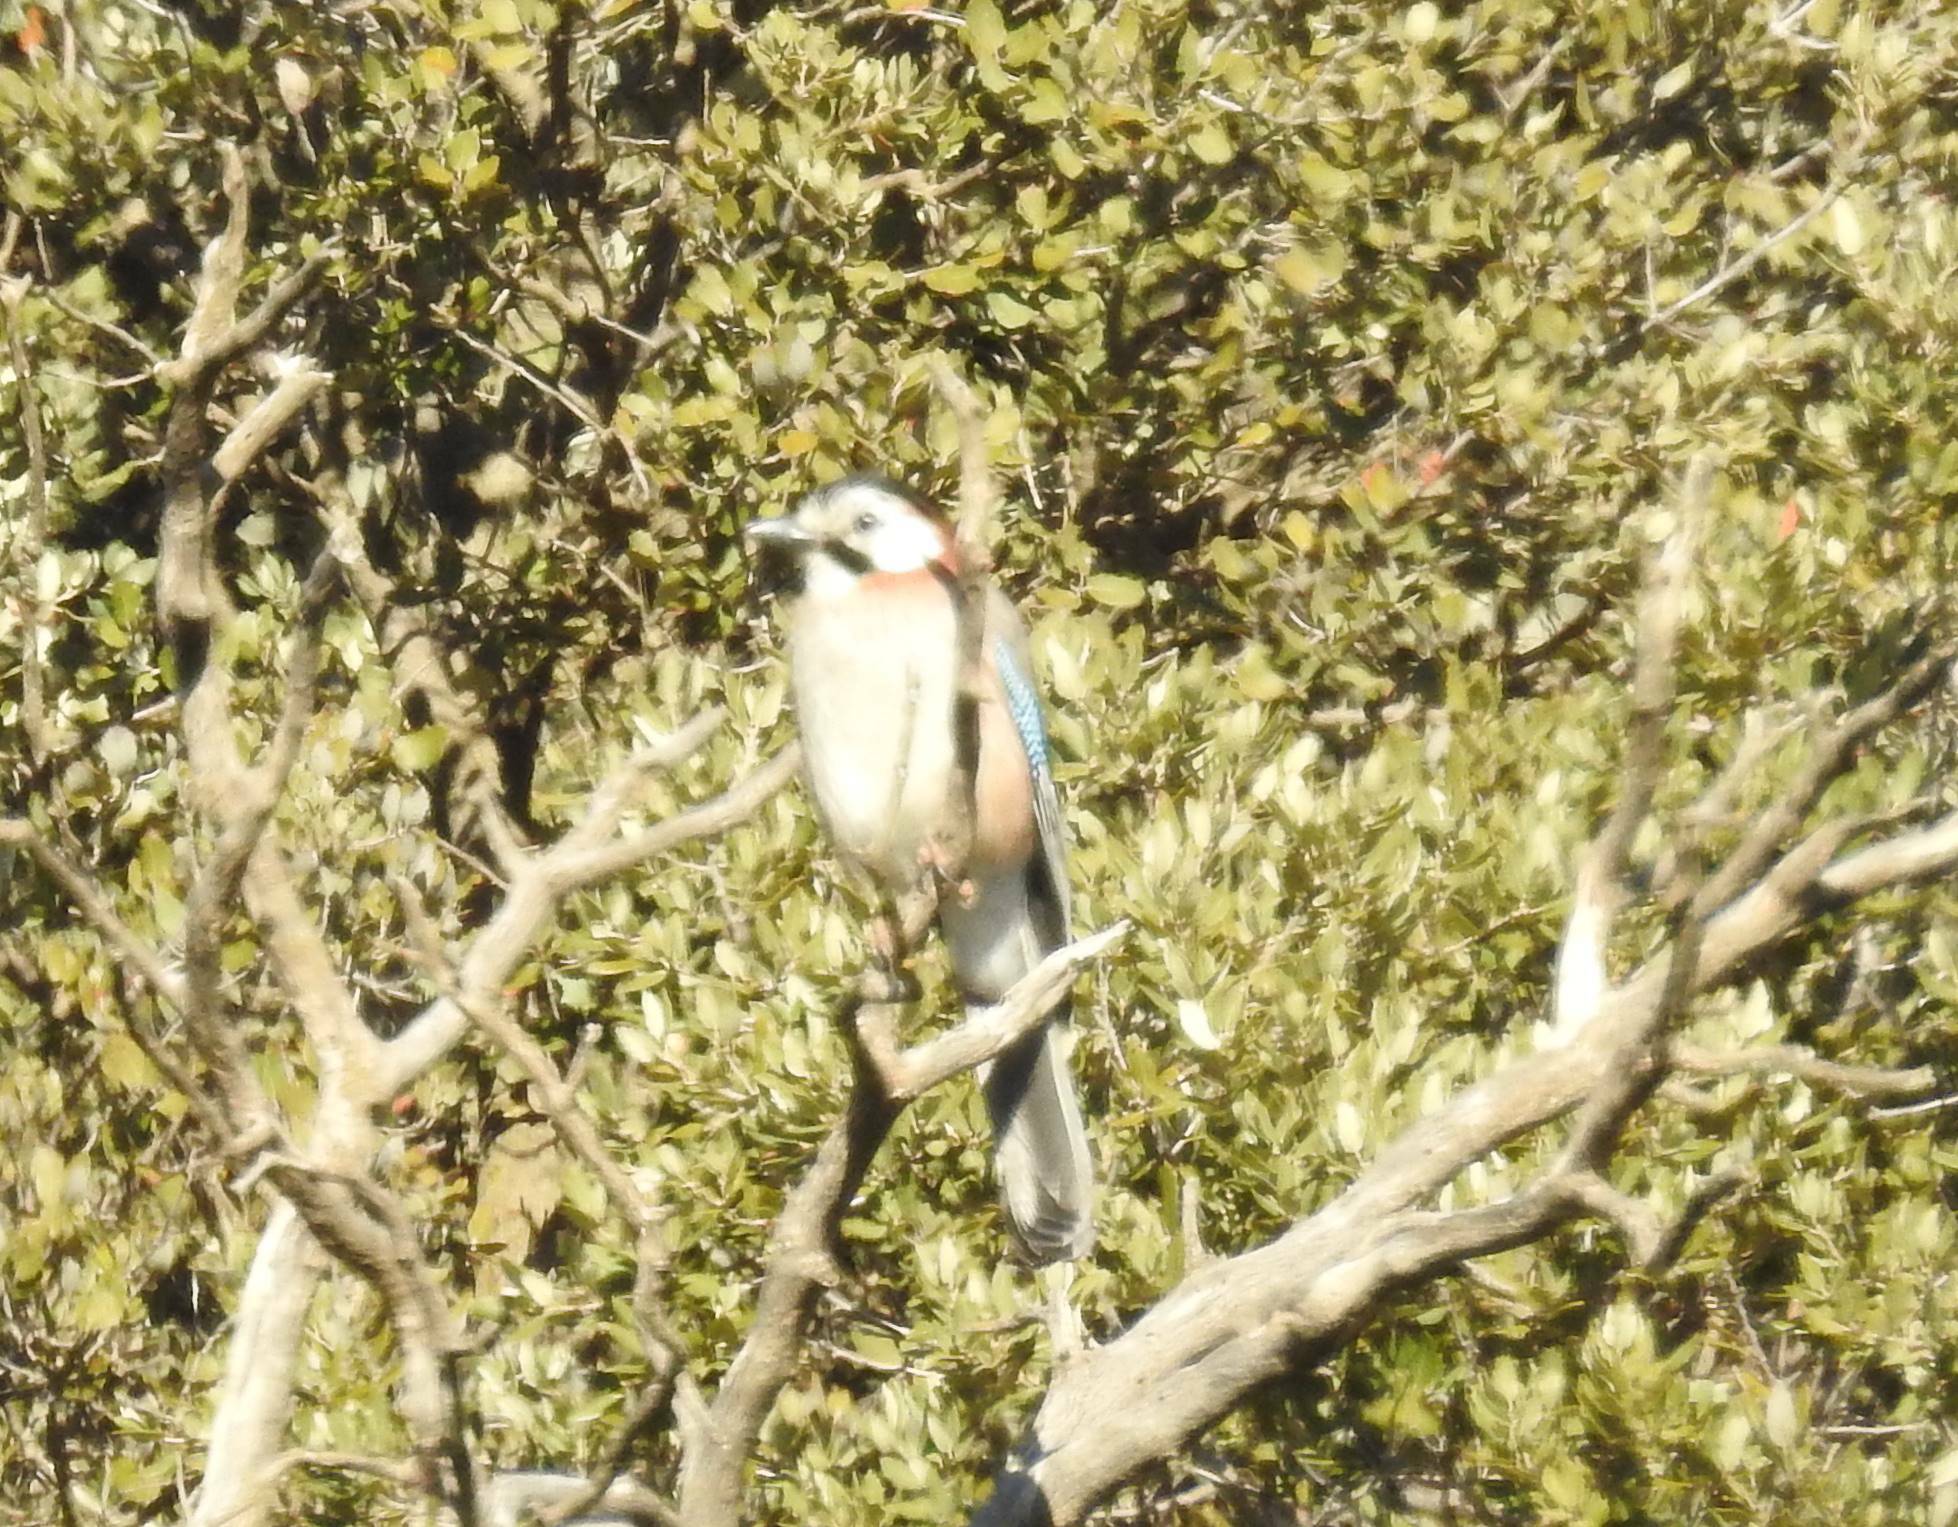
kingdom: Animalia
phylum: Chordata
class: Aves
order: Passeriformes
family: Corvidae
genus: Garrulus
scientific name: Garrulus glandarius
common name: Eurasian jay
